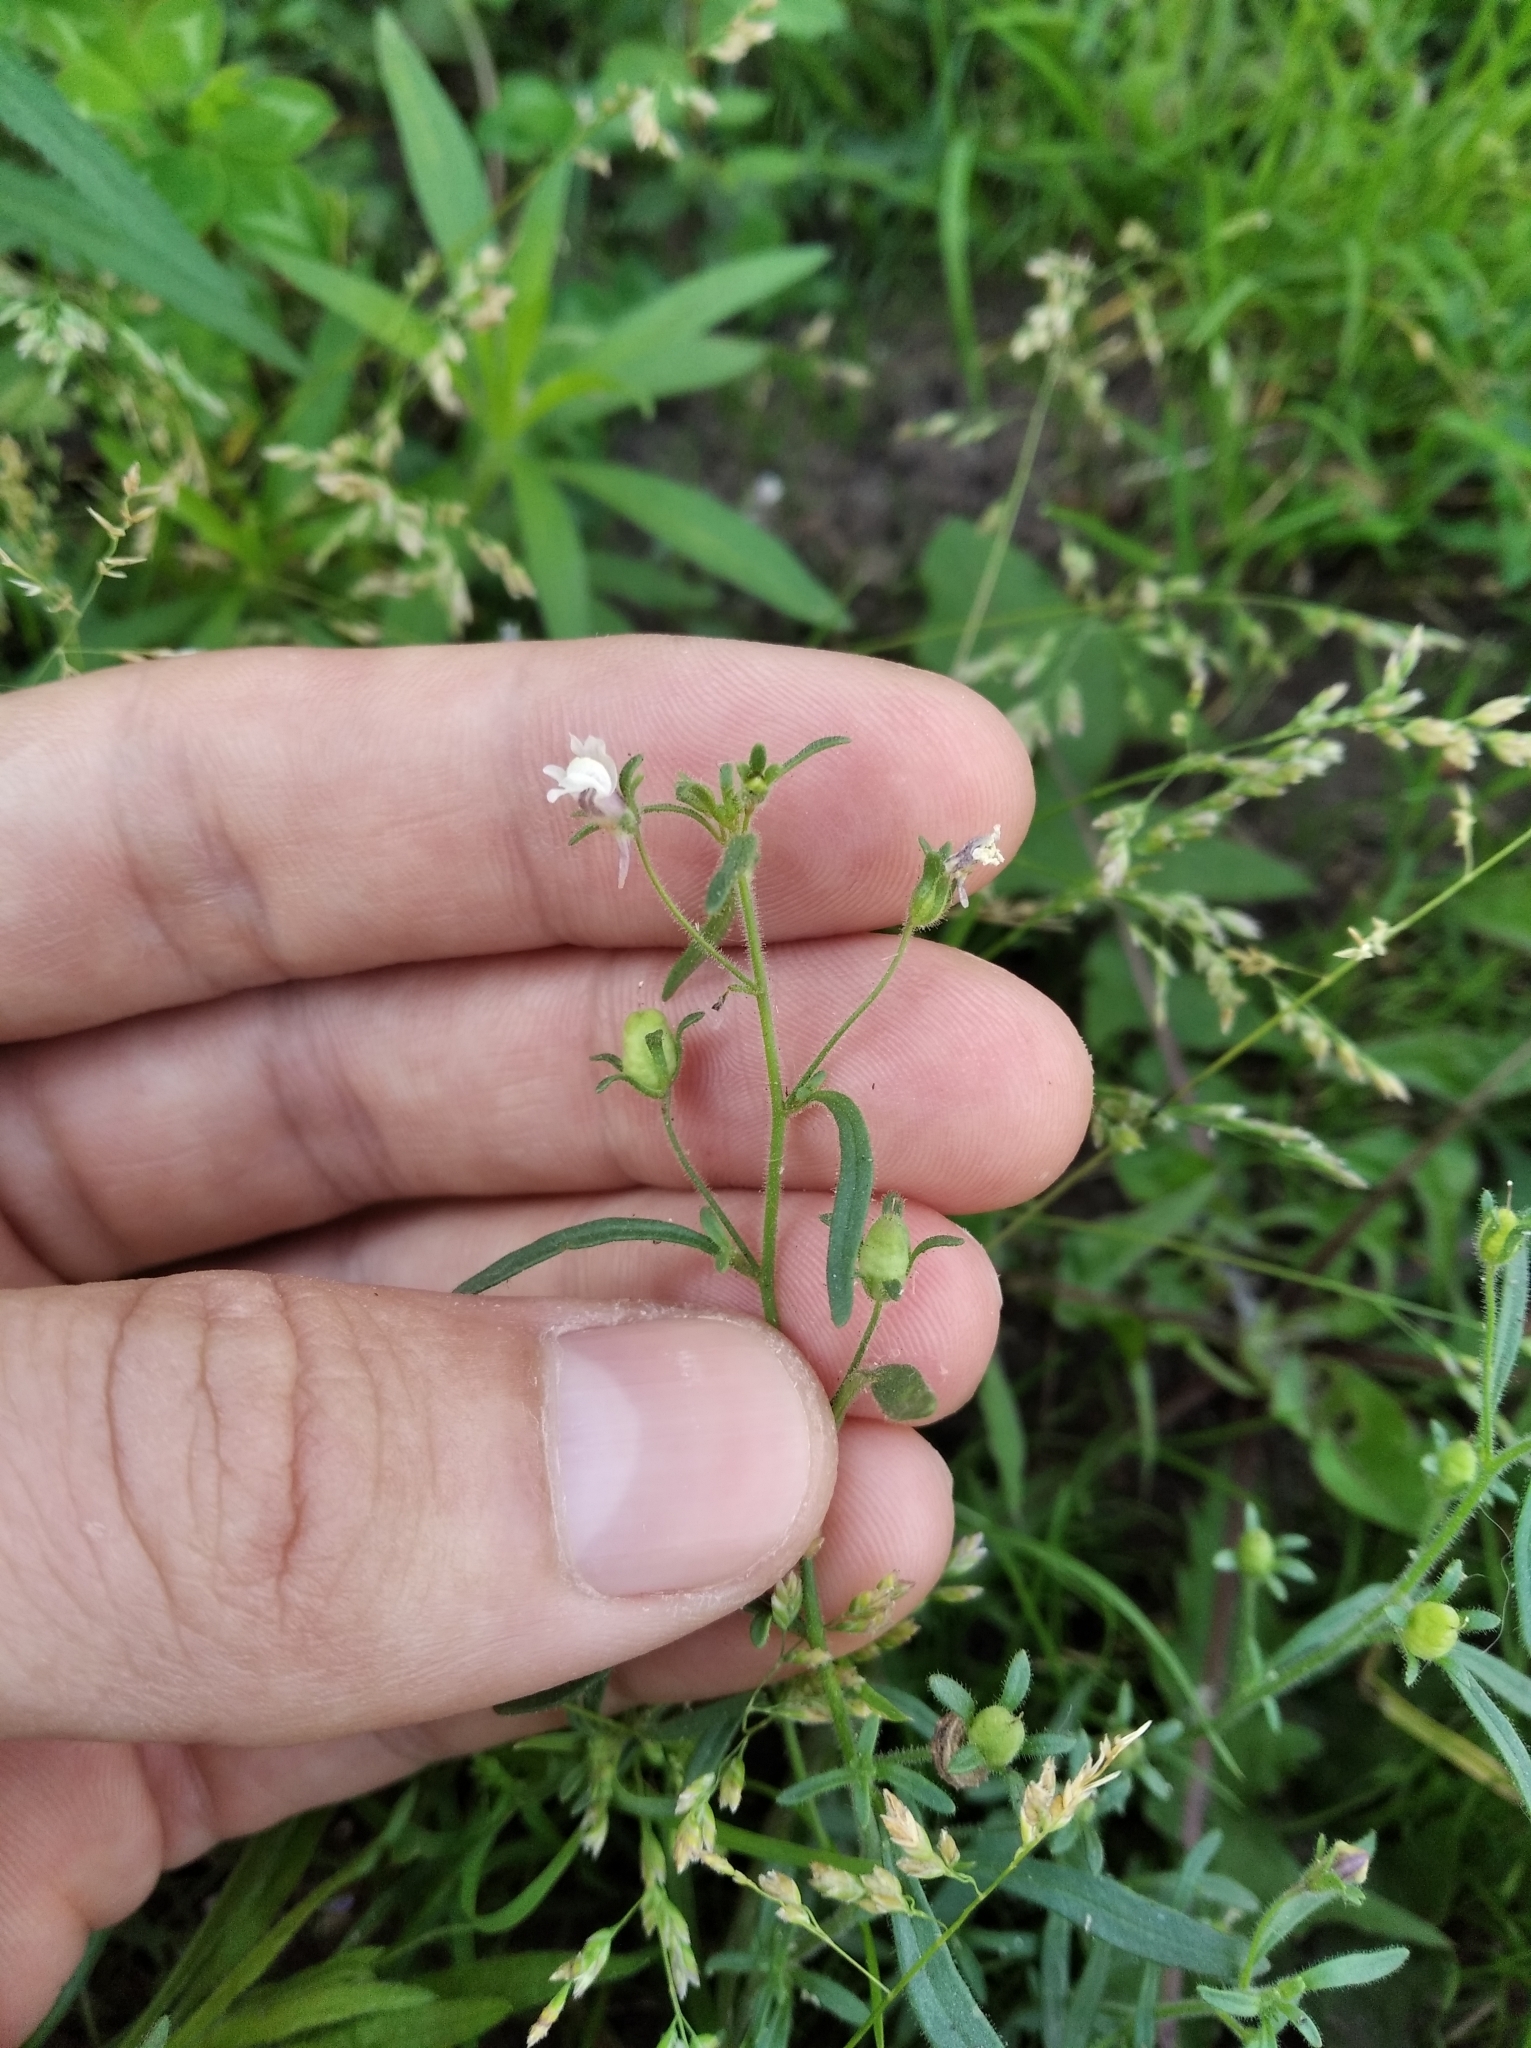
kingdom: Plantae
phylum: Tracheophyta
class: Magnoliopsida
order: Lamiales
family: Plantaginaceae
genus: Chaenorhinum
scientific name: Chaenorhinum minus
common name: Dwarf snapdragon
